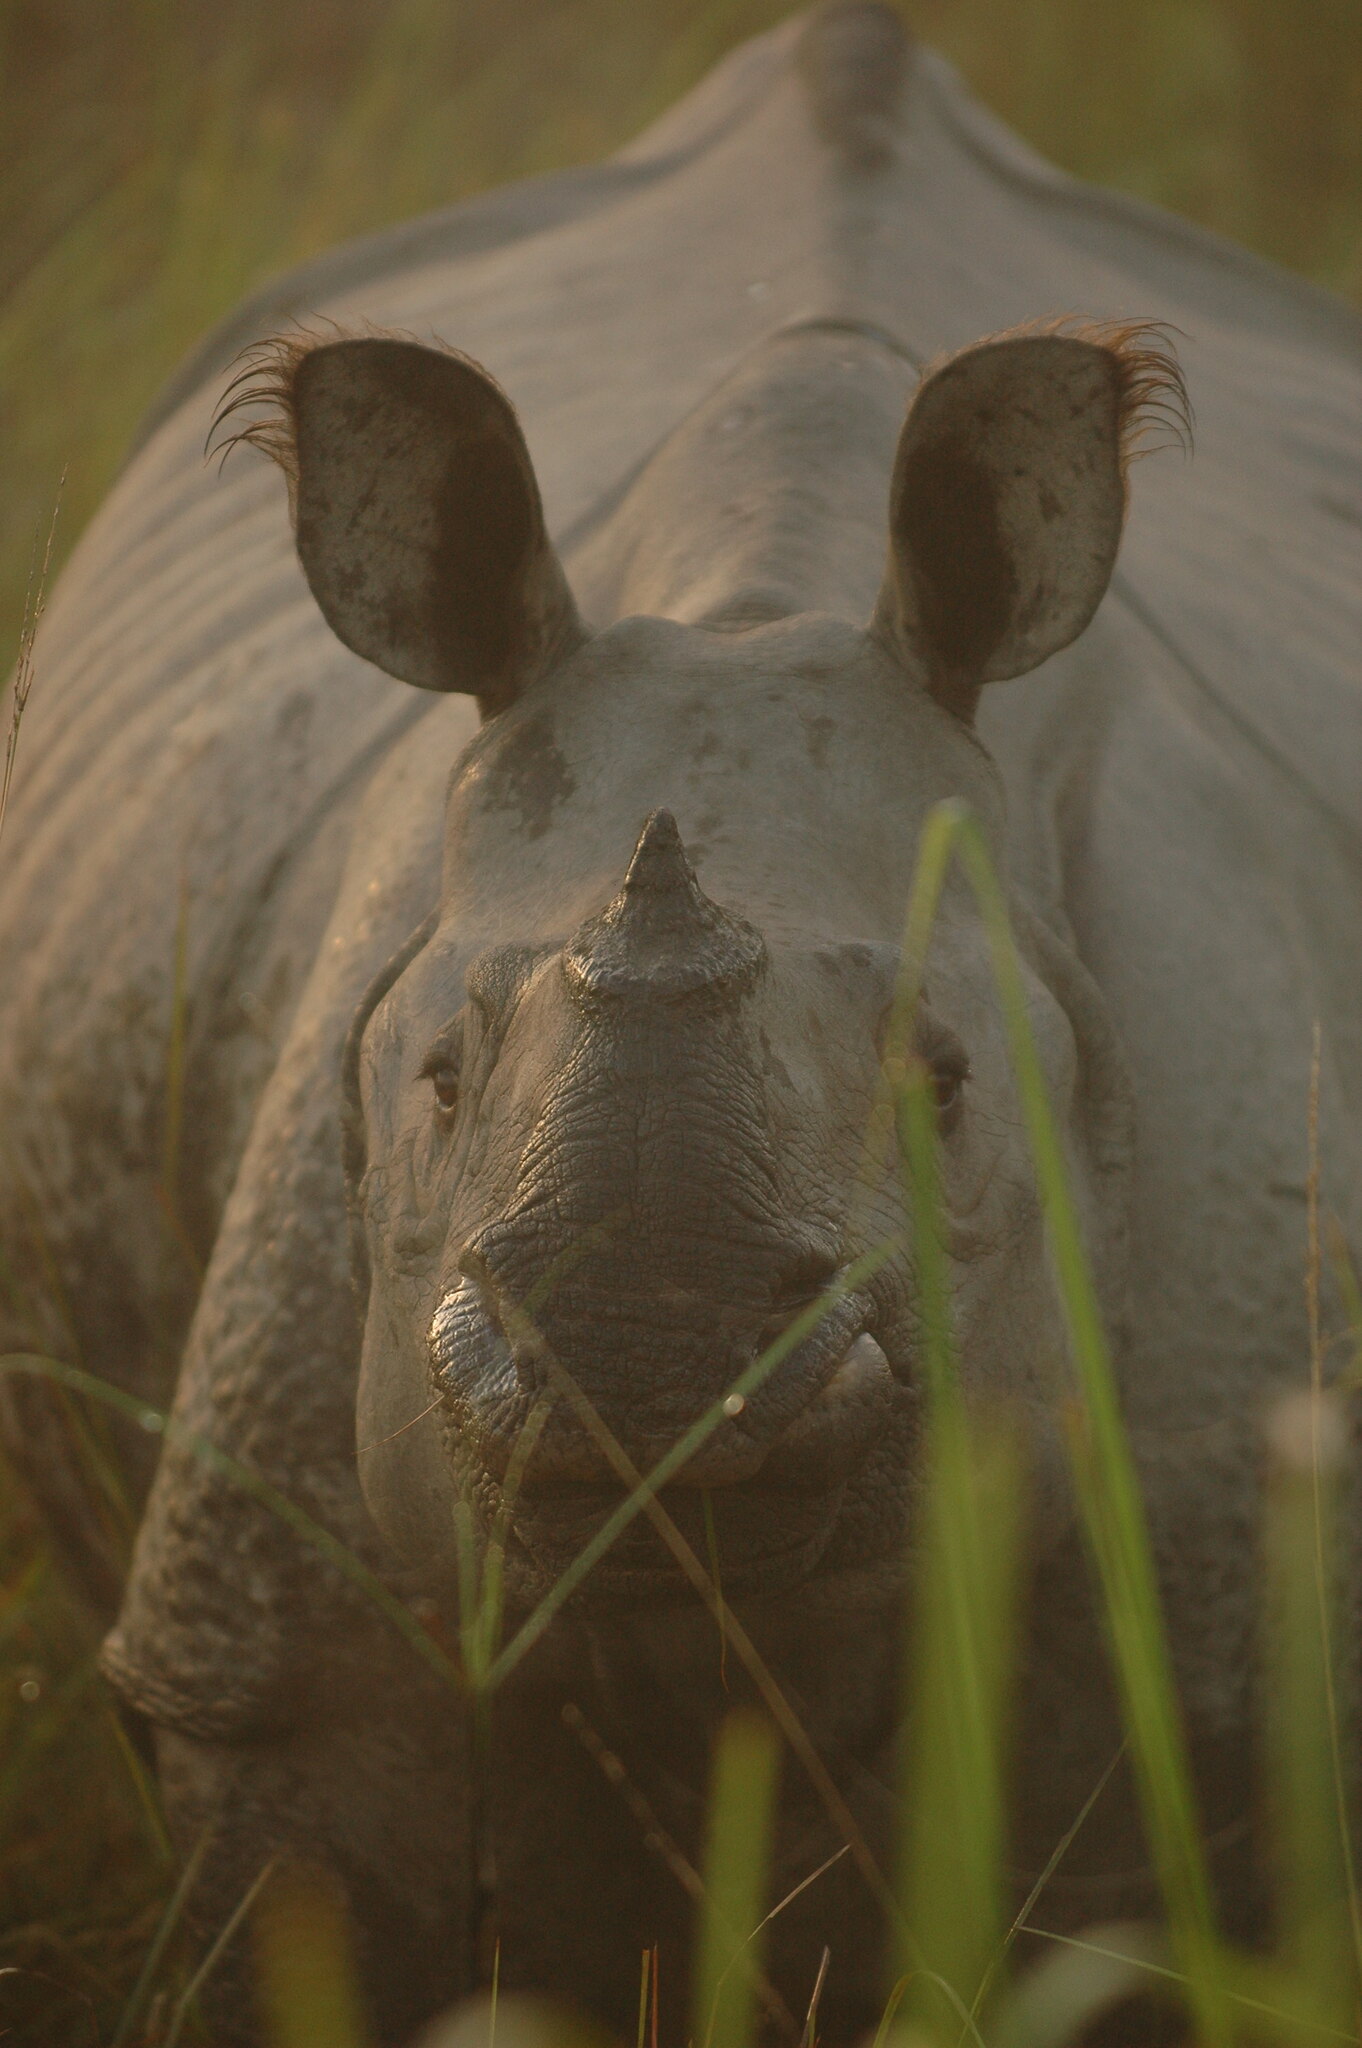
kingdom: Animalia
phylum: Chordata
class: Mammalia
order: Perissodactyla
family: Rhinocerotidae
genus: Rhinoceros
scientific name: Rhinoceros unicornis
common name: Indian rhinoceros
